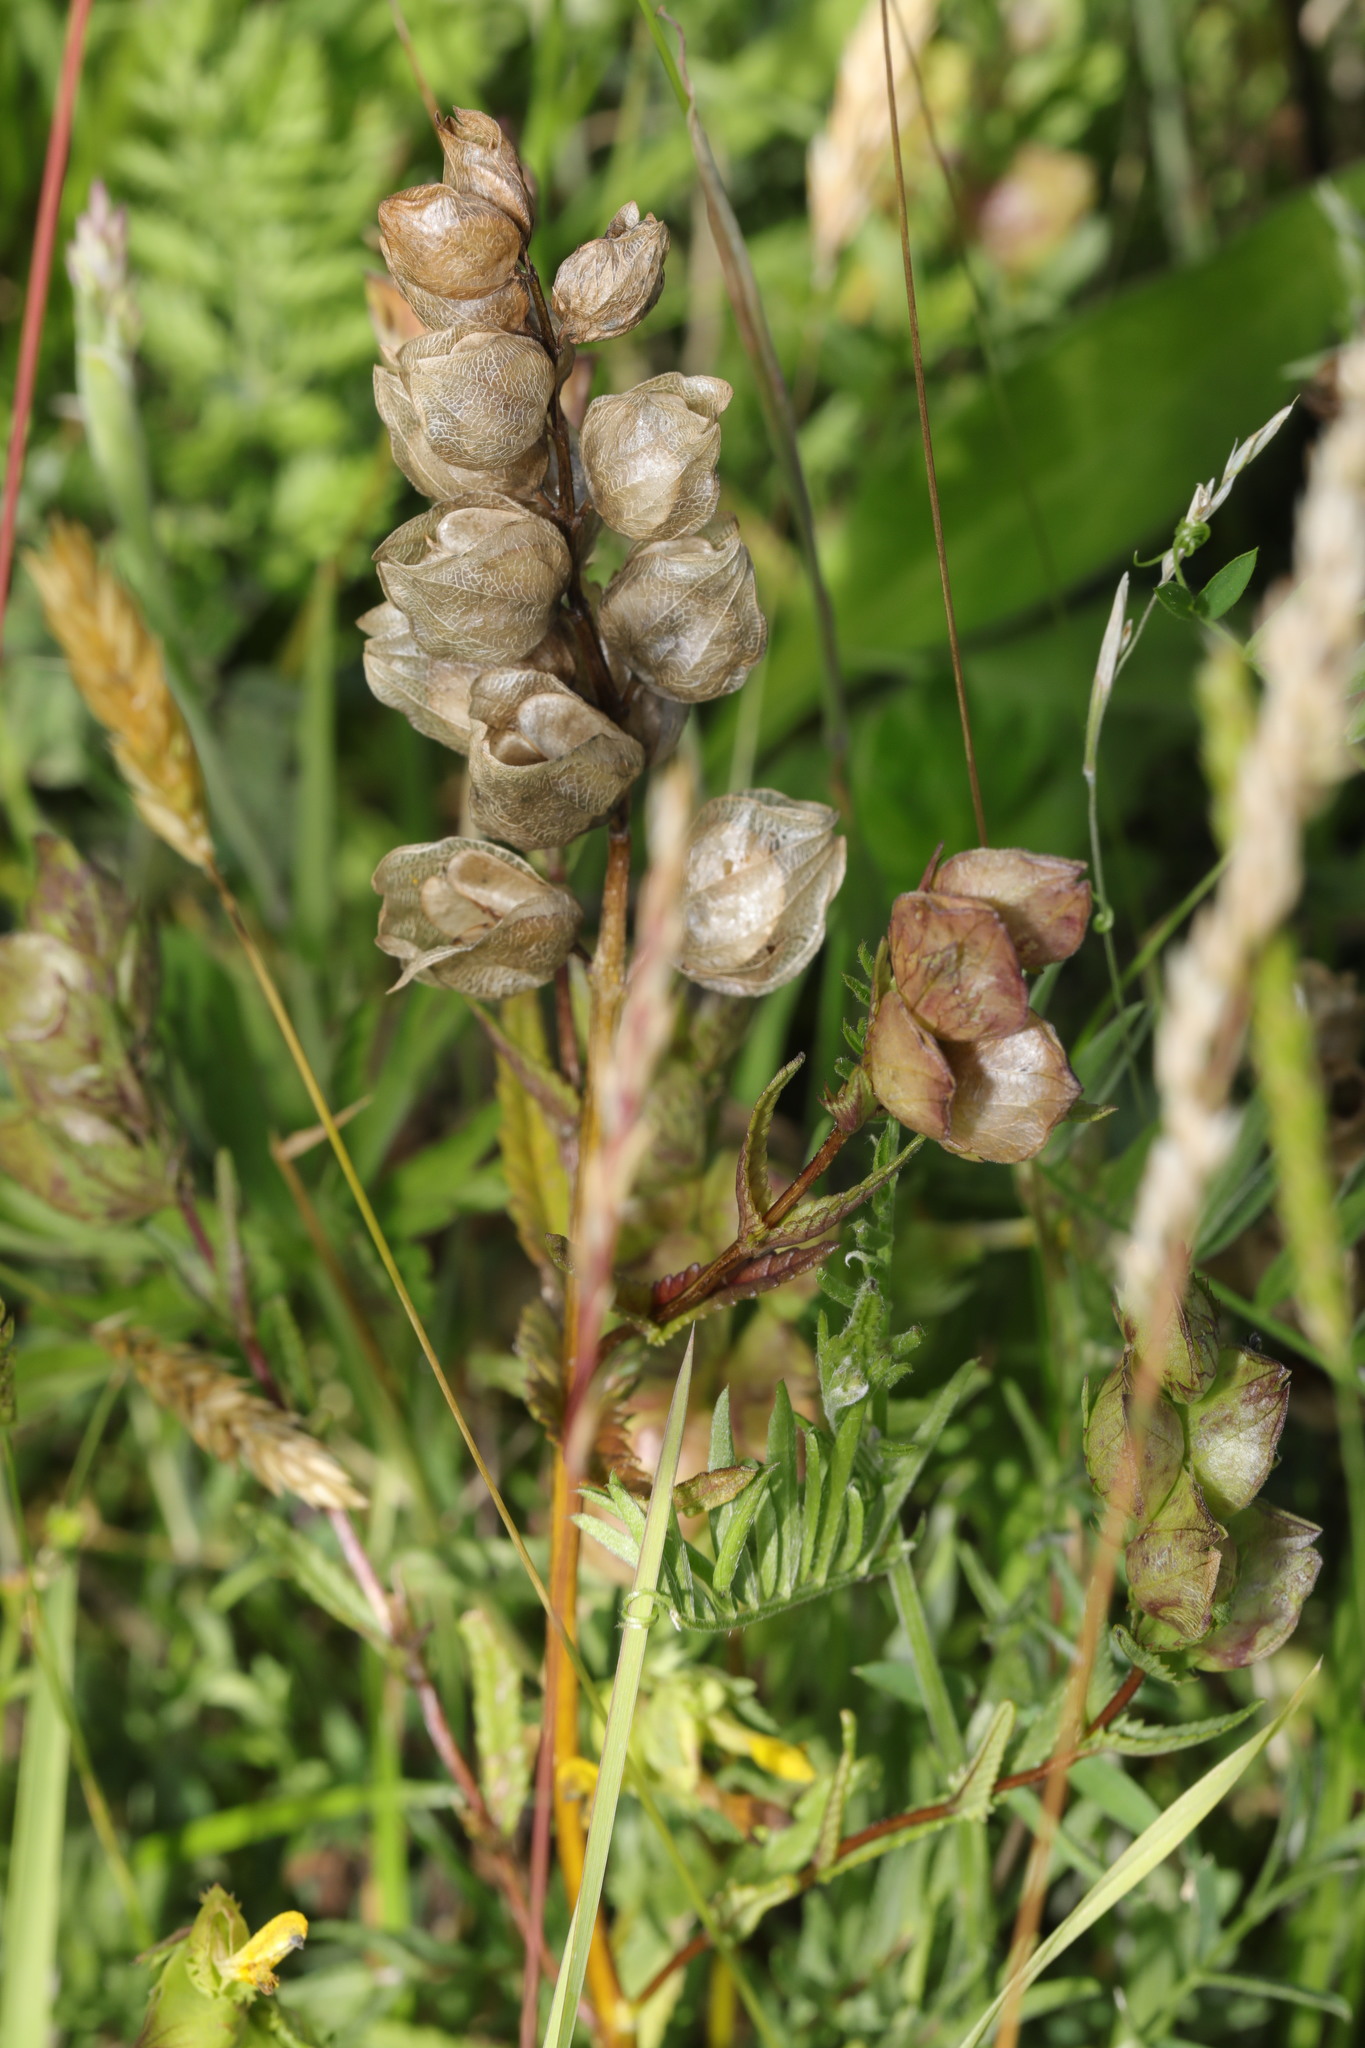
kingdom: Plantae
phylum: Tracheophyta
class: Magnoliopsida
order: Lamiales
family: Orobanchaceae
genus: Rhinanthus
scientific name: Rhinanthus minor
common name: Yellow-rattle
